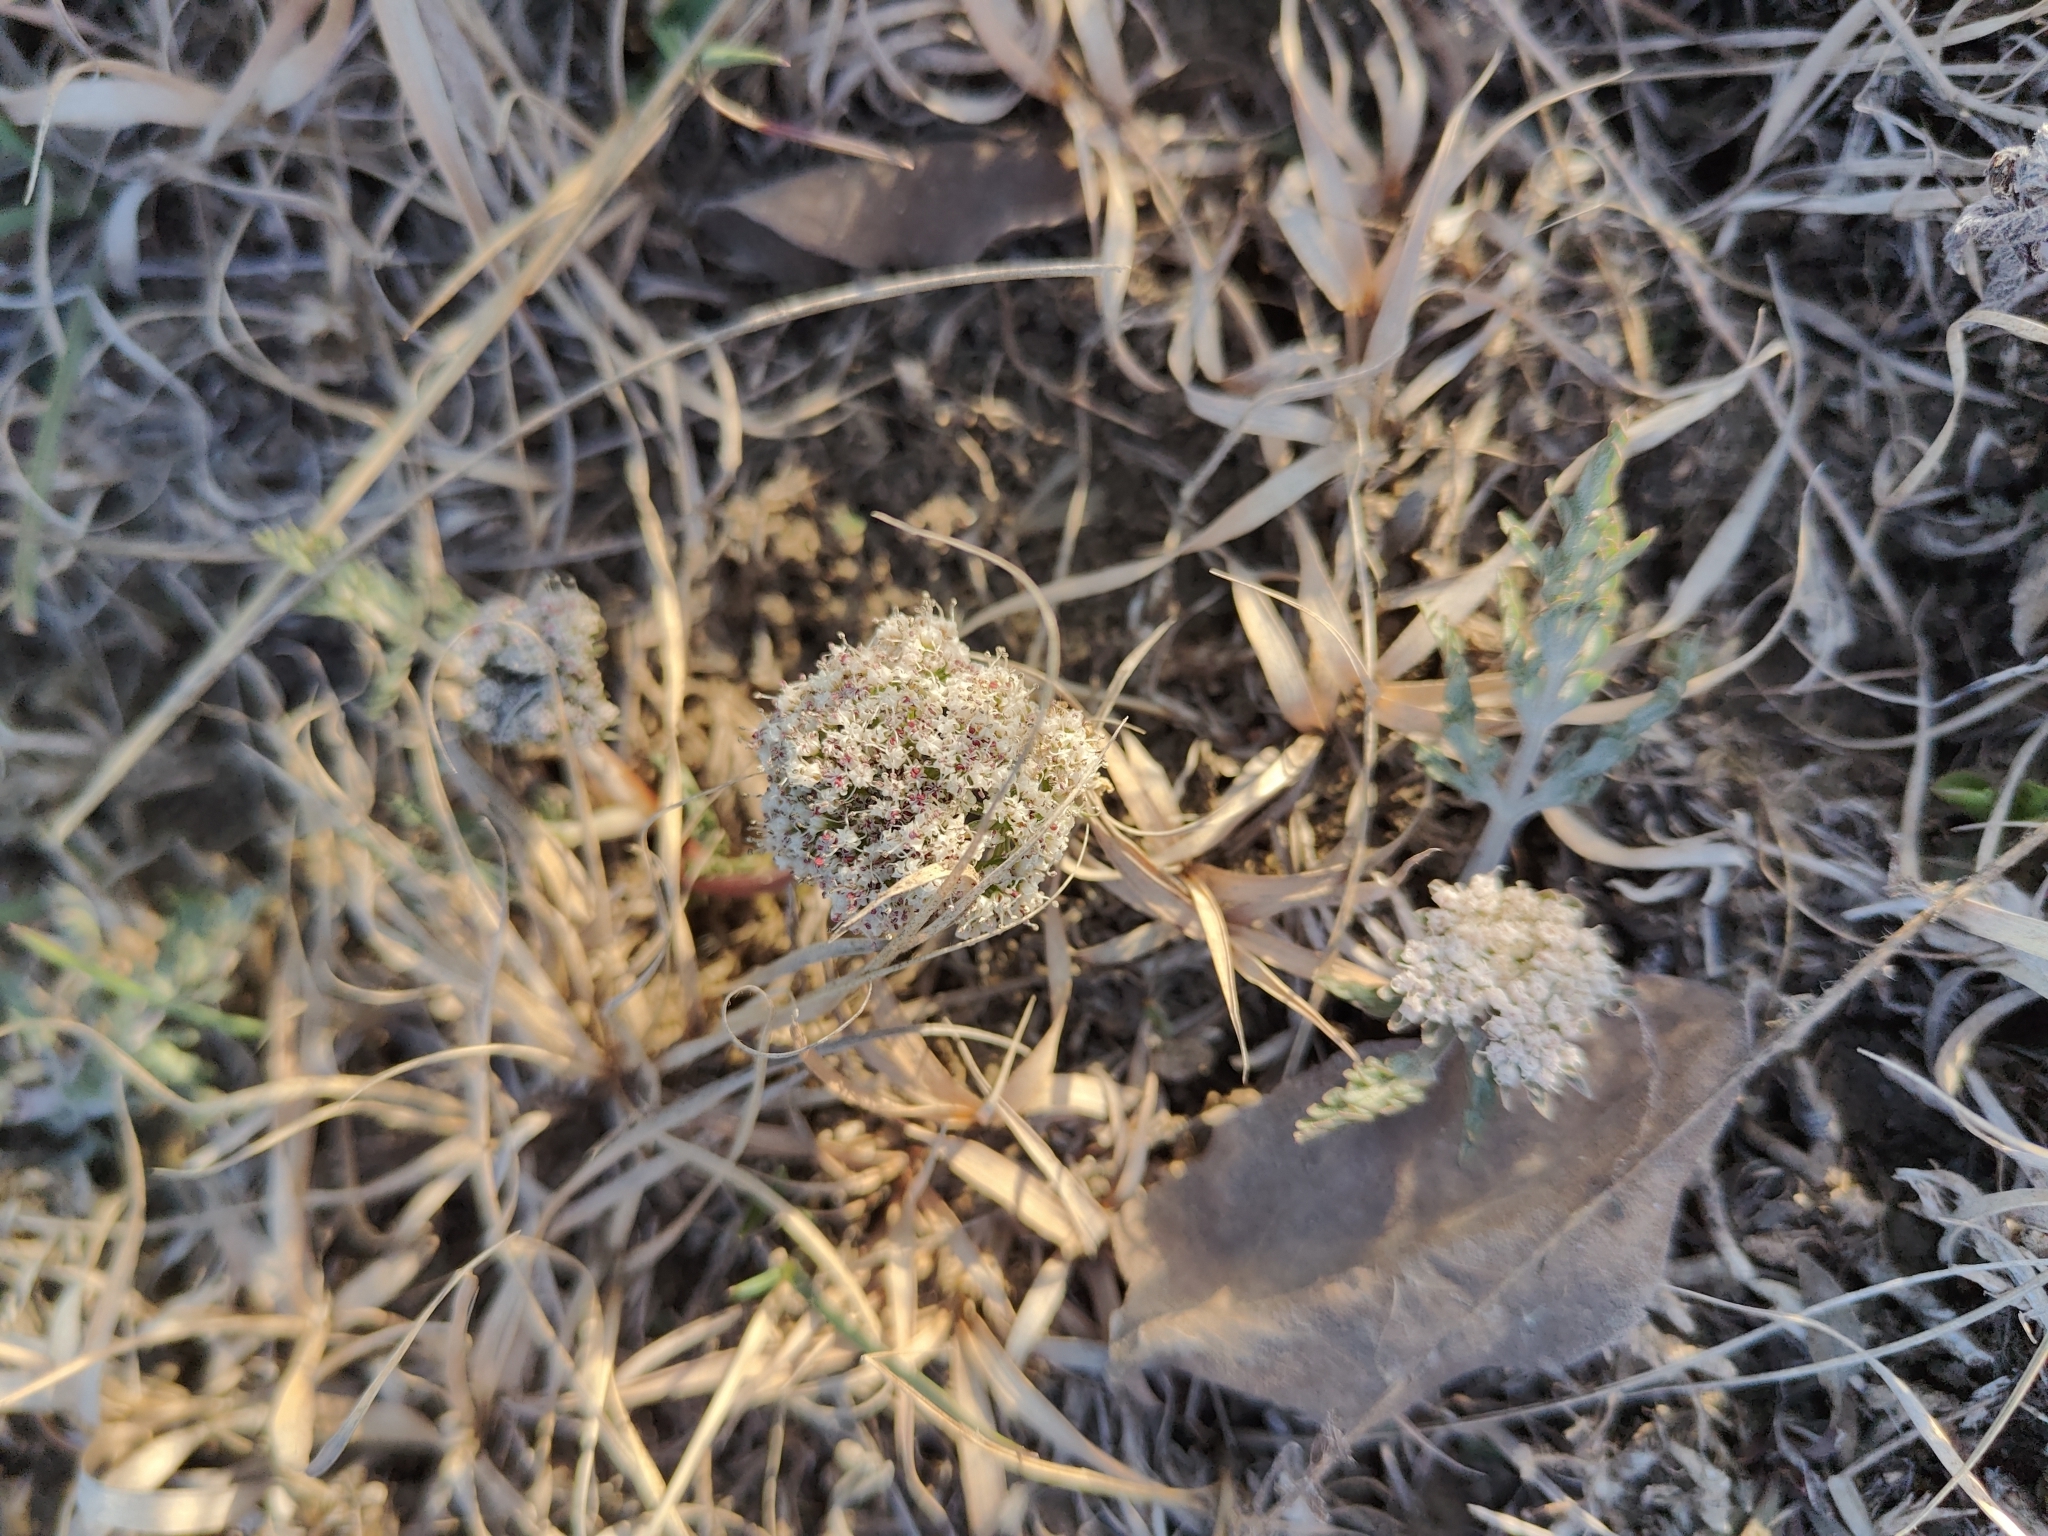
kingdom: Plantae
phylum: Tracheophyta
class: Magnoliopsida
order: Apiales
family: Apiaceae
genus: Lomatium
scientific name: Lomatium orientale
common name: Eastern cous
